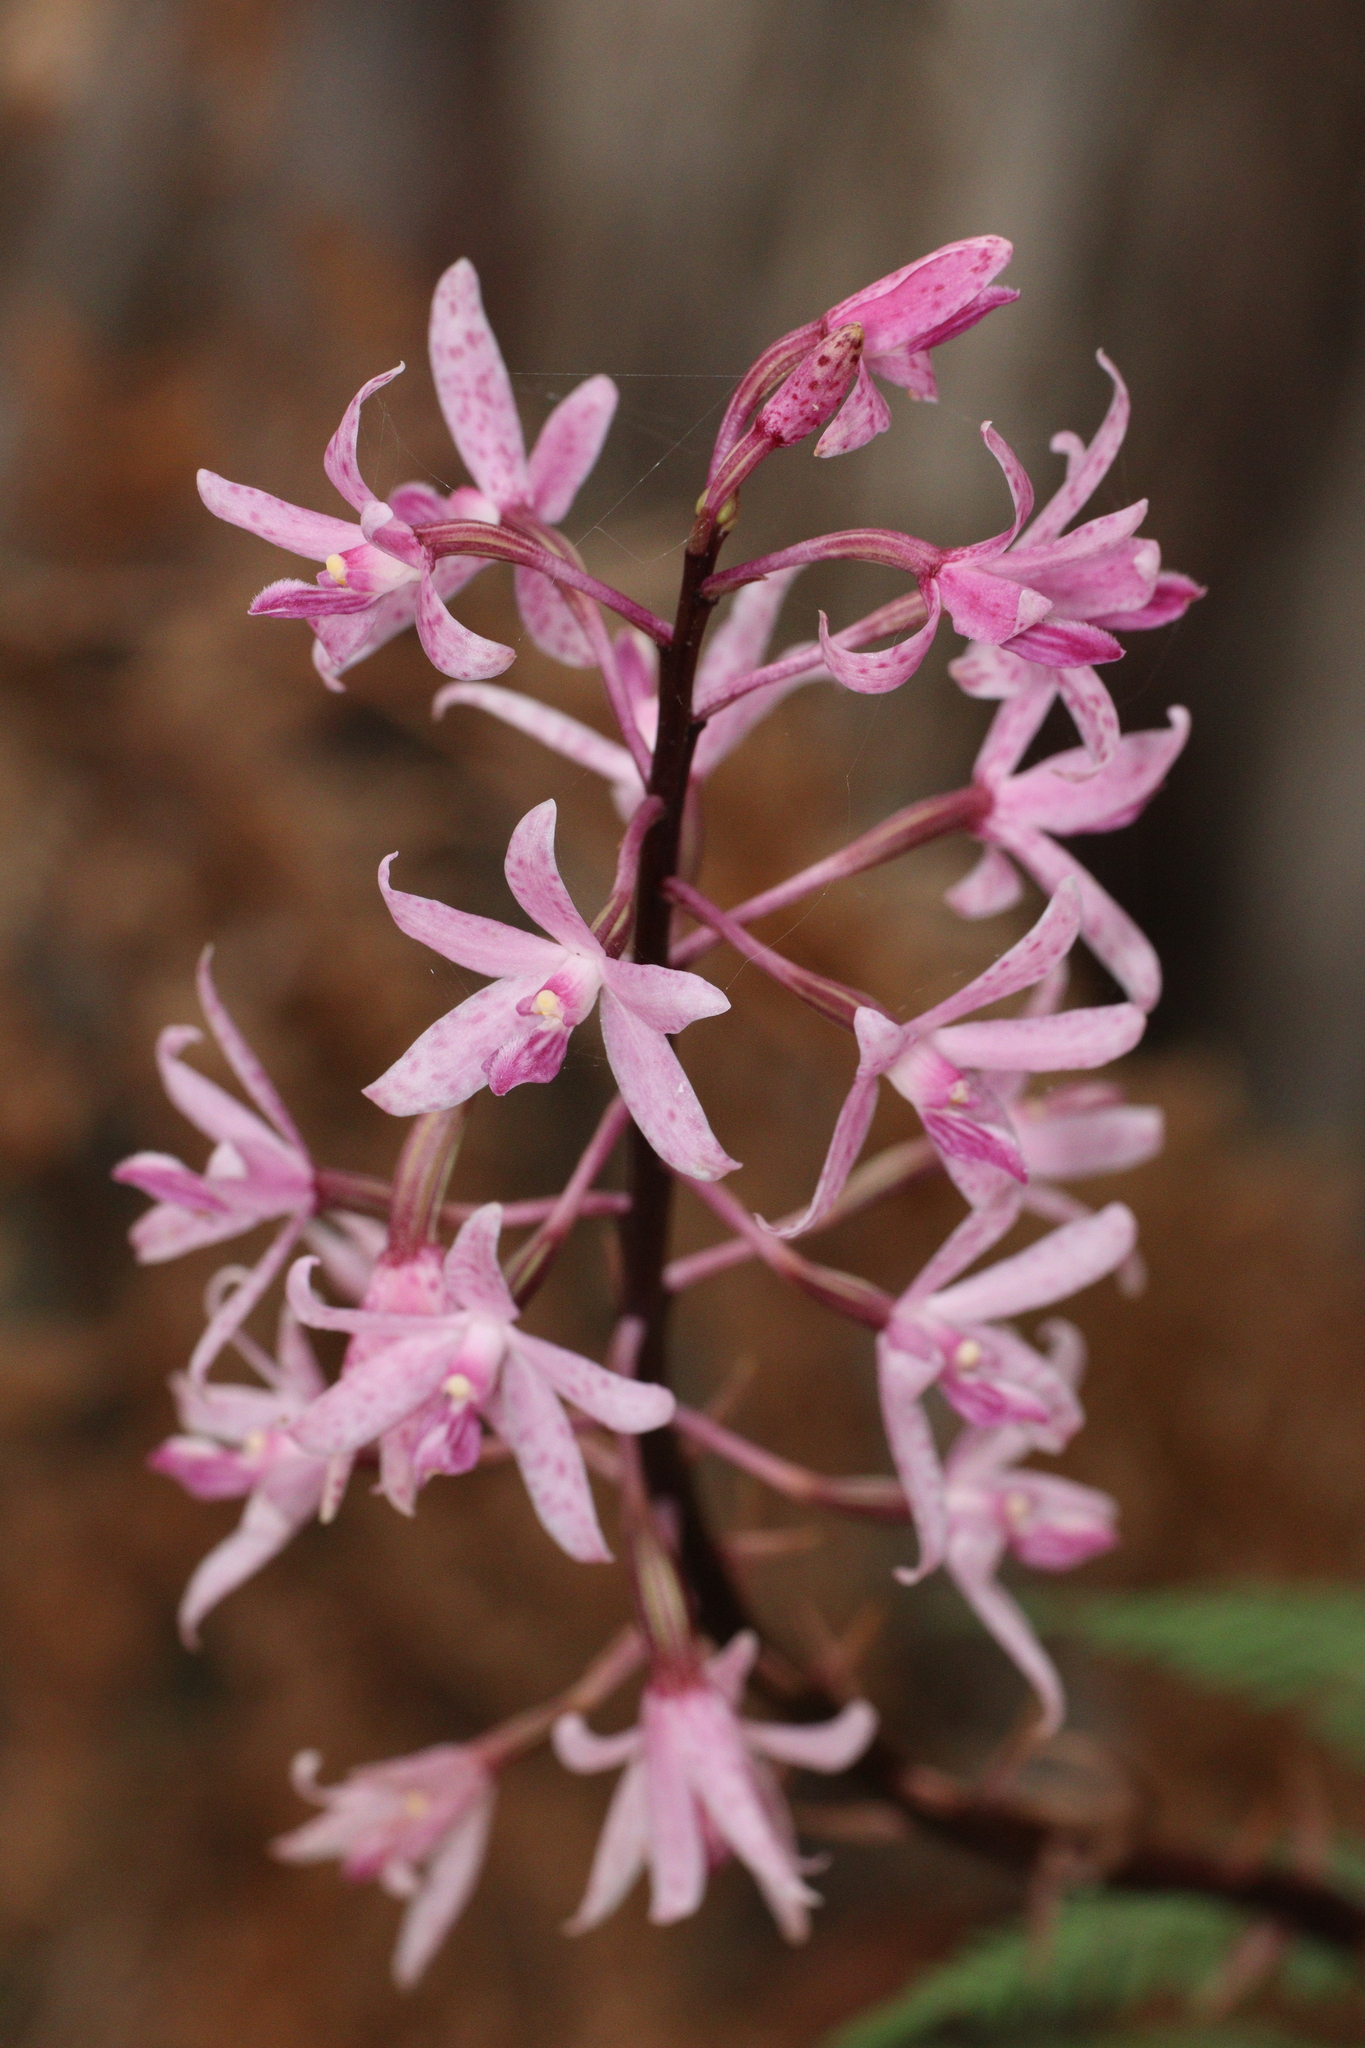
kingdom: Plantae
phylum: Tracheophyta
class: Liliopsida
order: Asparagales
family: Orchidaceae
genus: Dipodium
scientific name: Dipodium roseum
